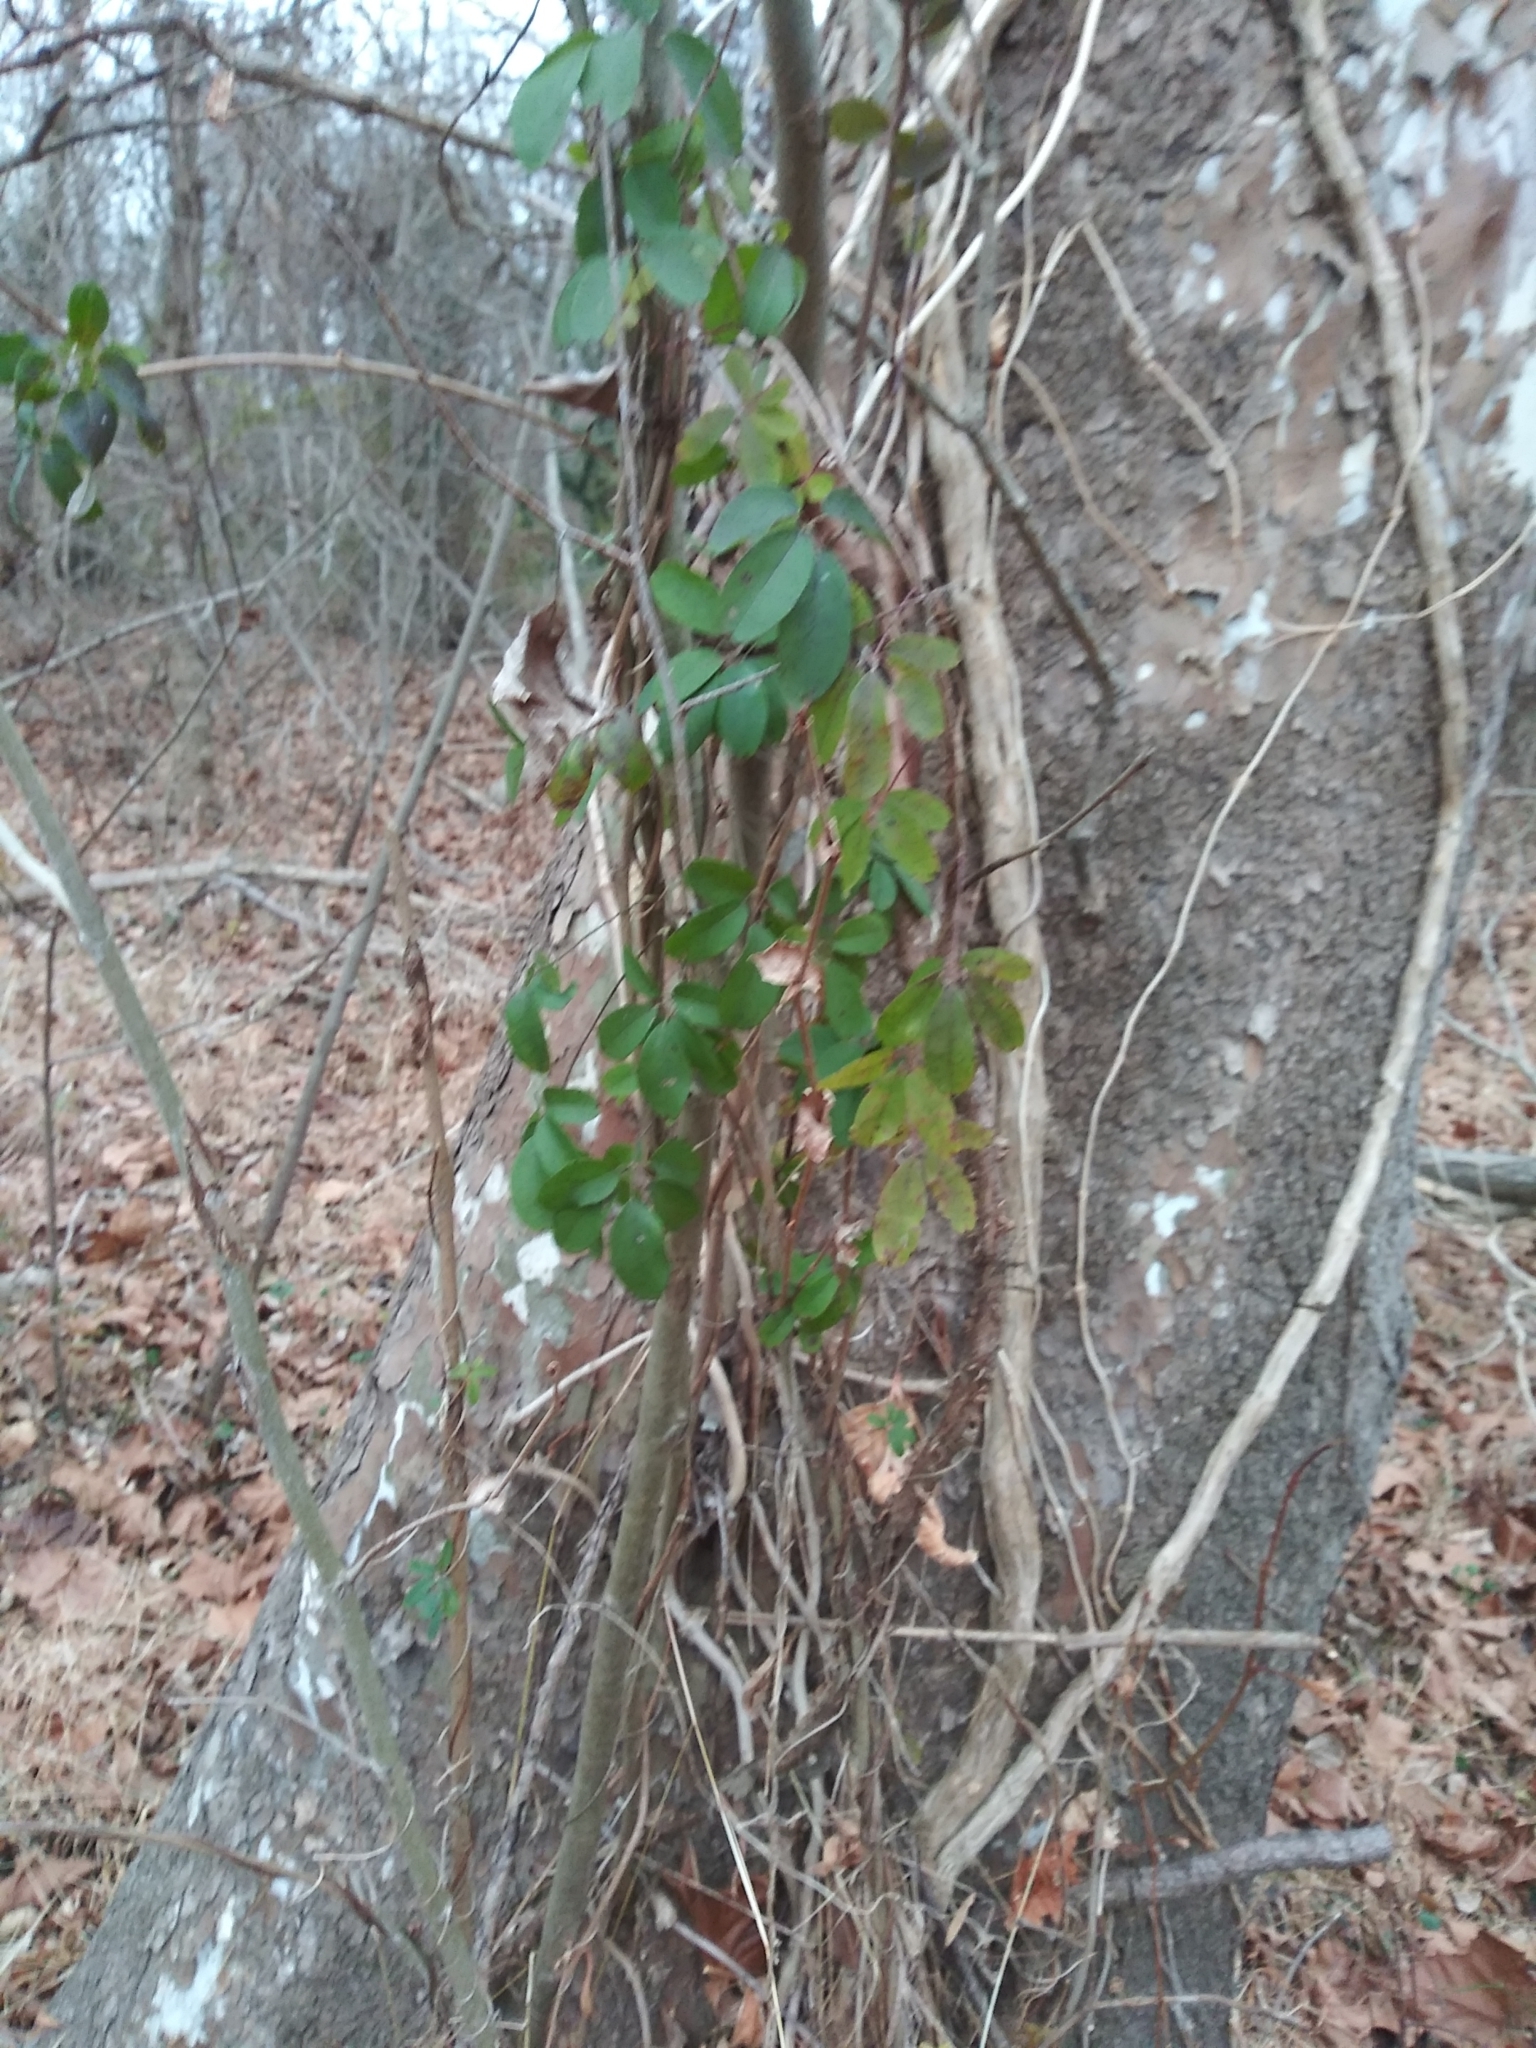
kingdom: Plantae
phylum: Tracheophyta
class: Magnoliopsida
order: Ranunculales
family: Lardizabalaceae
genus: Akebia
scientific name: Akebia quinata
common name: Five-leaf akebia
